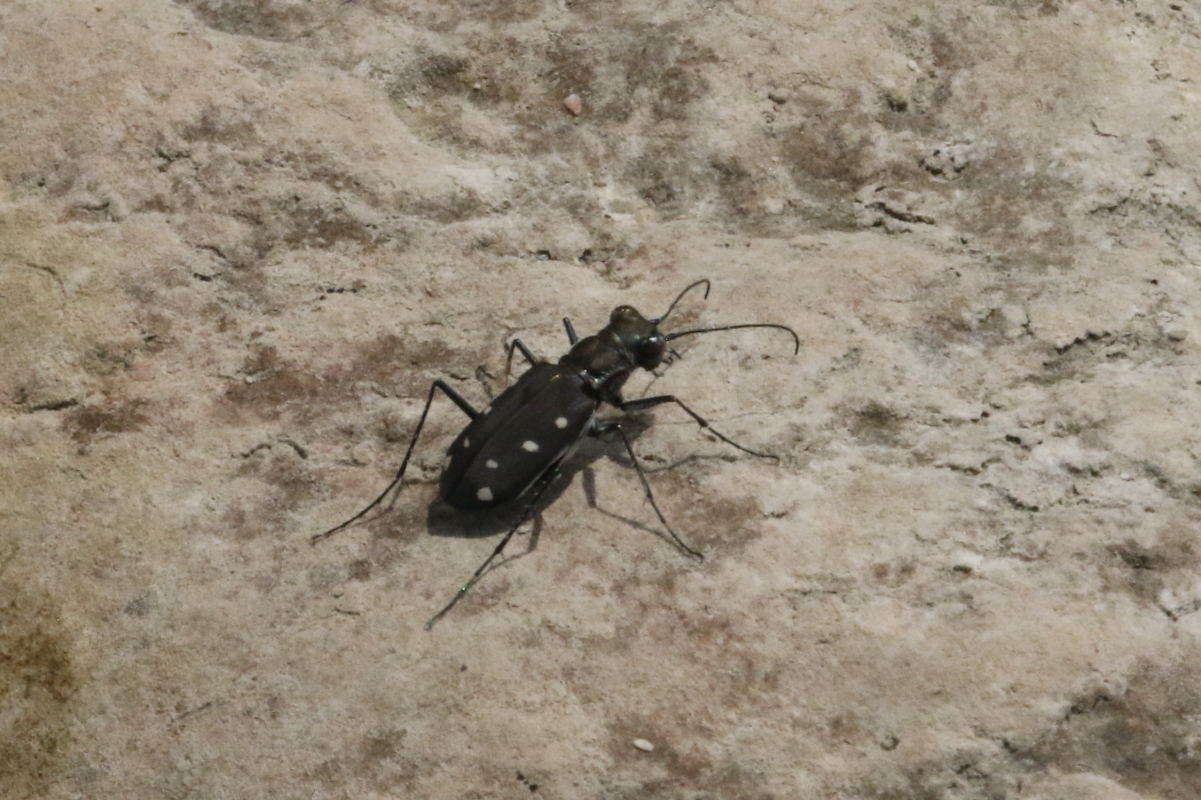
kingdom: Animalia
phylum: Arthropoda
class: Insecta
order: Coleoptera
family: Carabidae
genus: Cicindela
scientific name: Cicindela ocellata
